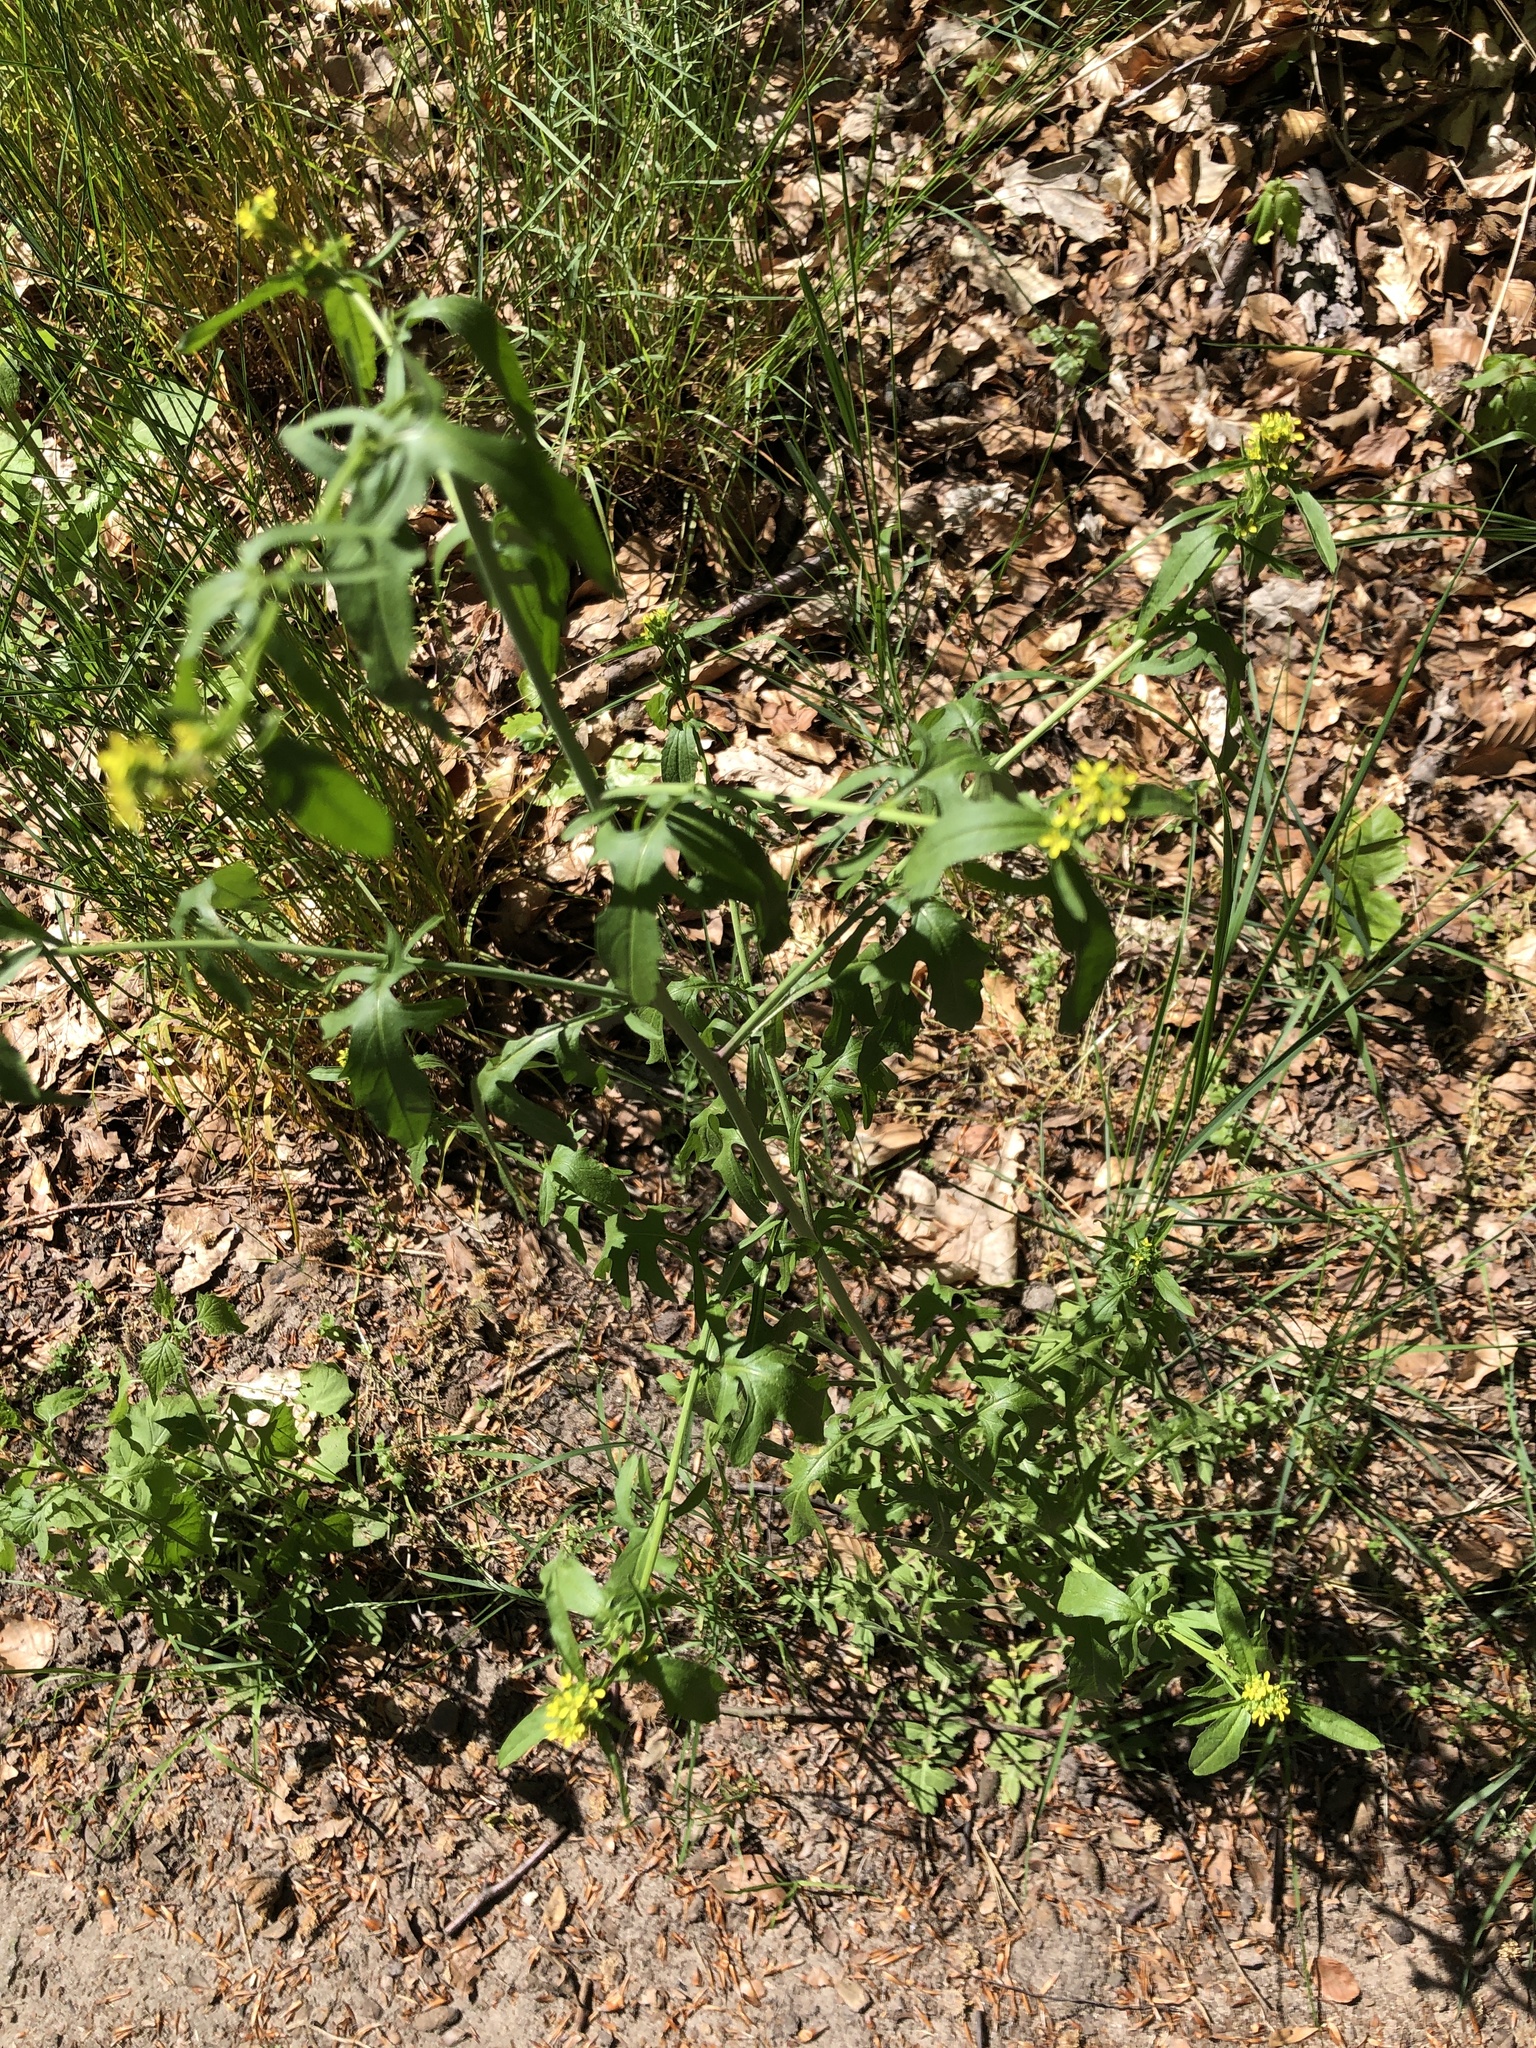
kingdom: Plantae
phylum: Tracheophyta
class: Magnoliopsida
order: Brassicales
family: Brassicaceae
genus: Sisymbrium
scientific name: Sisymbrium officinale
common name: Hedge mustard
